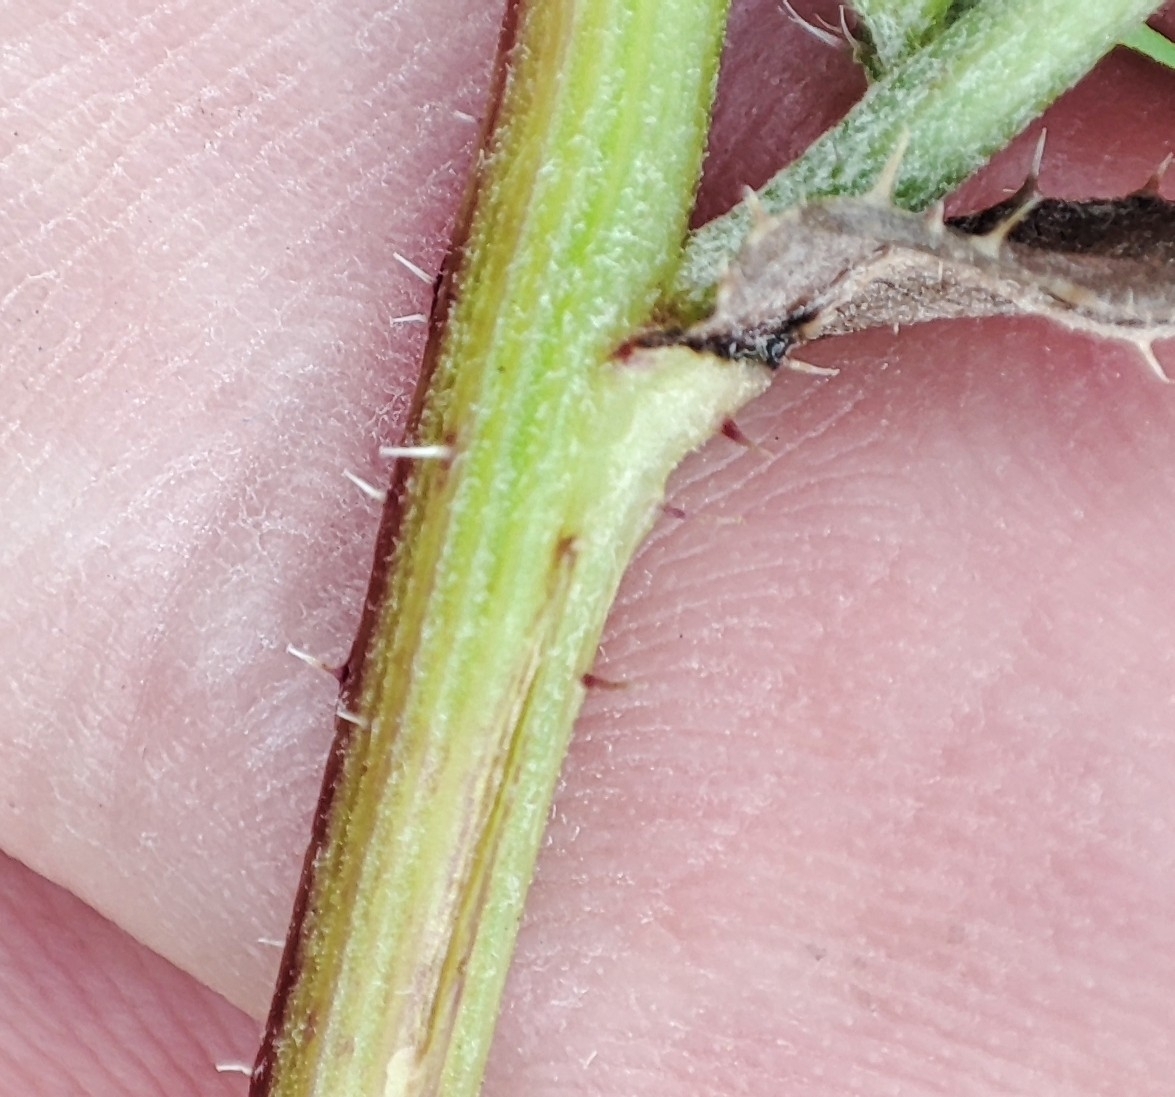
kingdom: Plantae
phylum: Tracheophyta
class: Magnoliopsida
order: Asterales
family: Asteraceae
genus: Picris
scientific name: Picris hieracioides
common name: Hawkweed oxtongue
